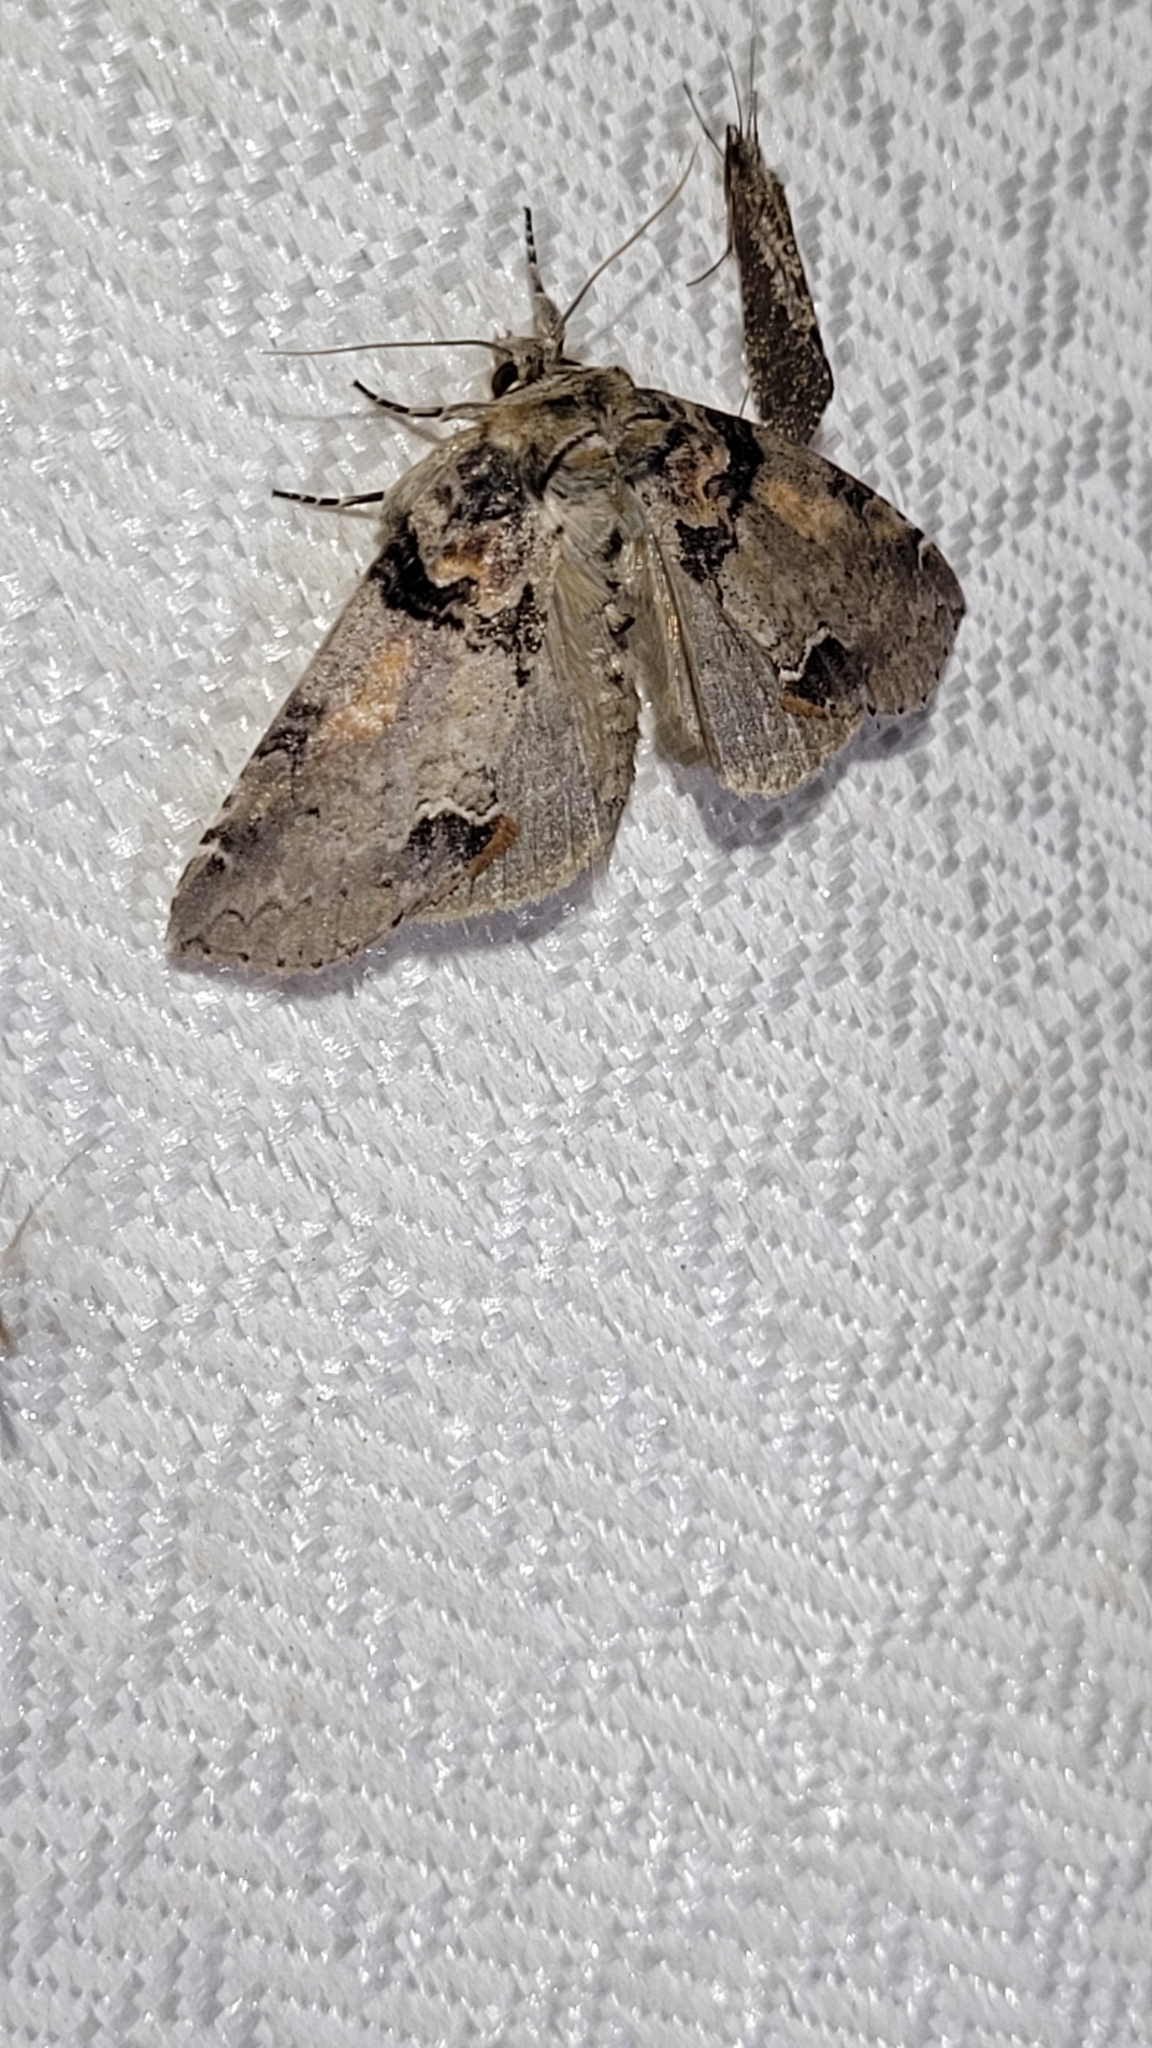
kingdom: Animalia
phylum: Arthropoda
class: Insecta
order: Lepidoptera
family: Drepanidae
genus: Pseudothyatira
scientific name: Pseudothyatira cymatophoroides
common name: Tufted thyatirid moth
